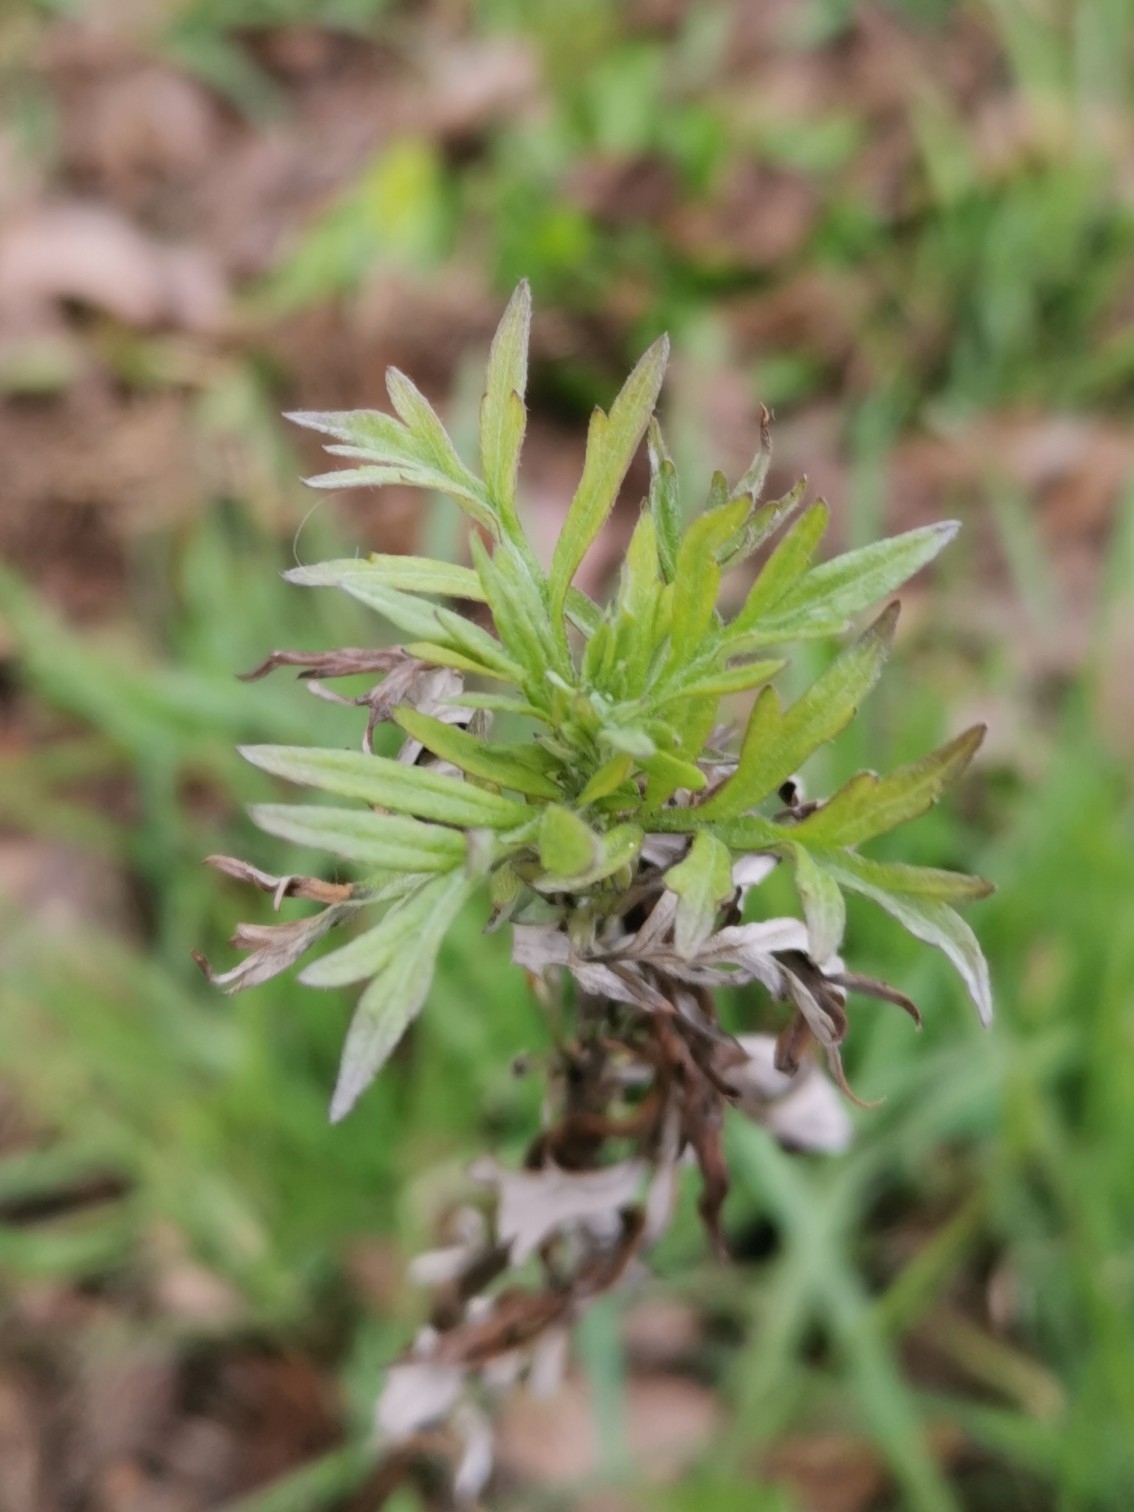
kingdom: Plantae
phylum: Tracheophyta
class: Magnoliopsida
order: Asterales
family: Asteraceae
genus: Artemisia
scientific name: Artemisia vulgaris
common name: Mugwort
